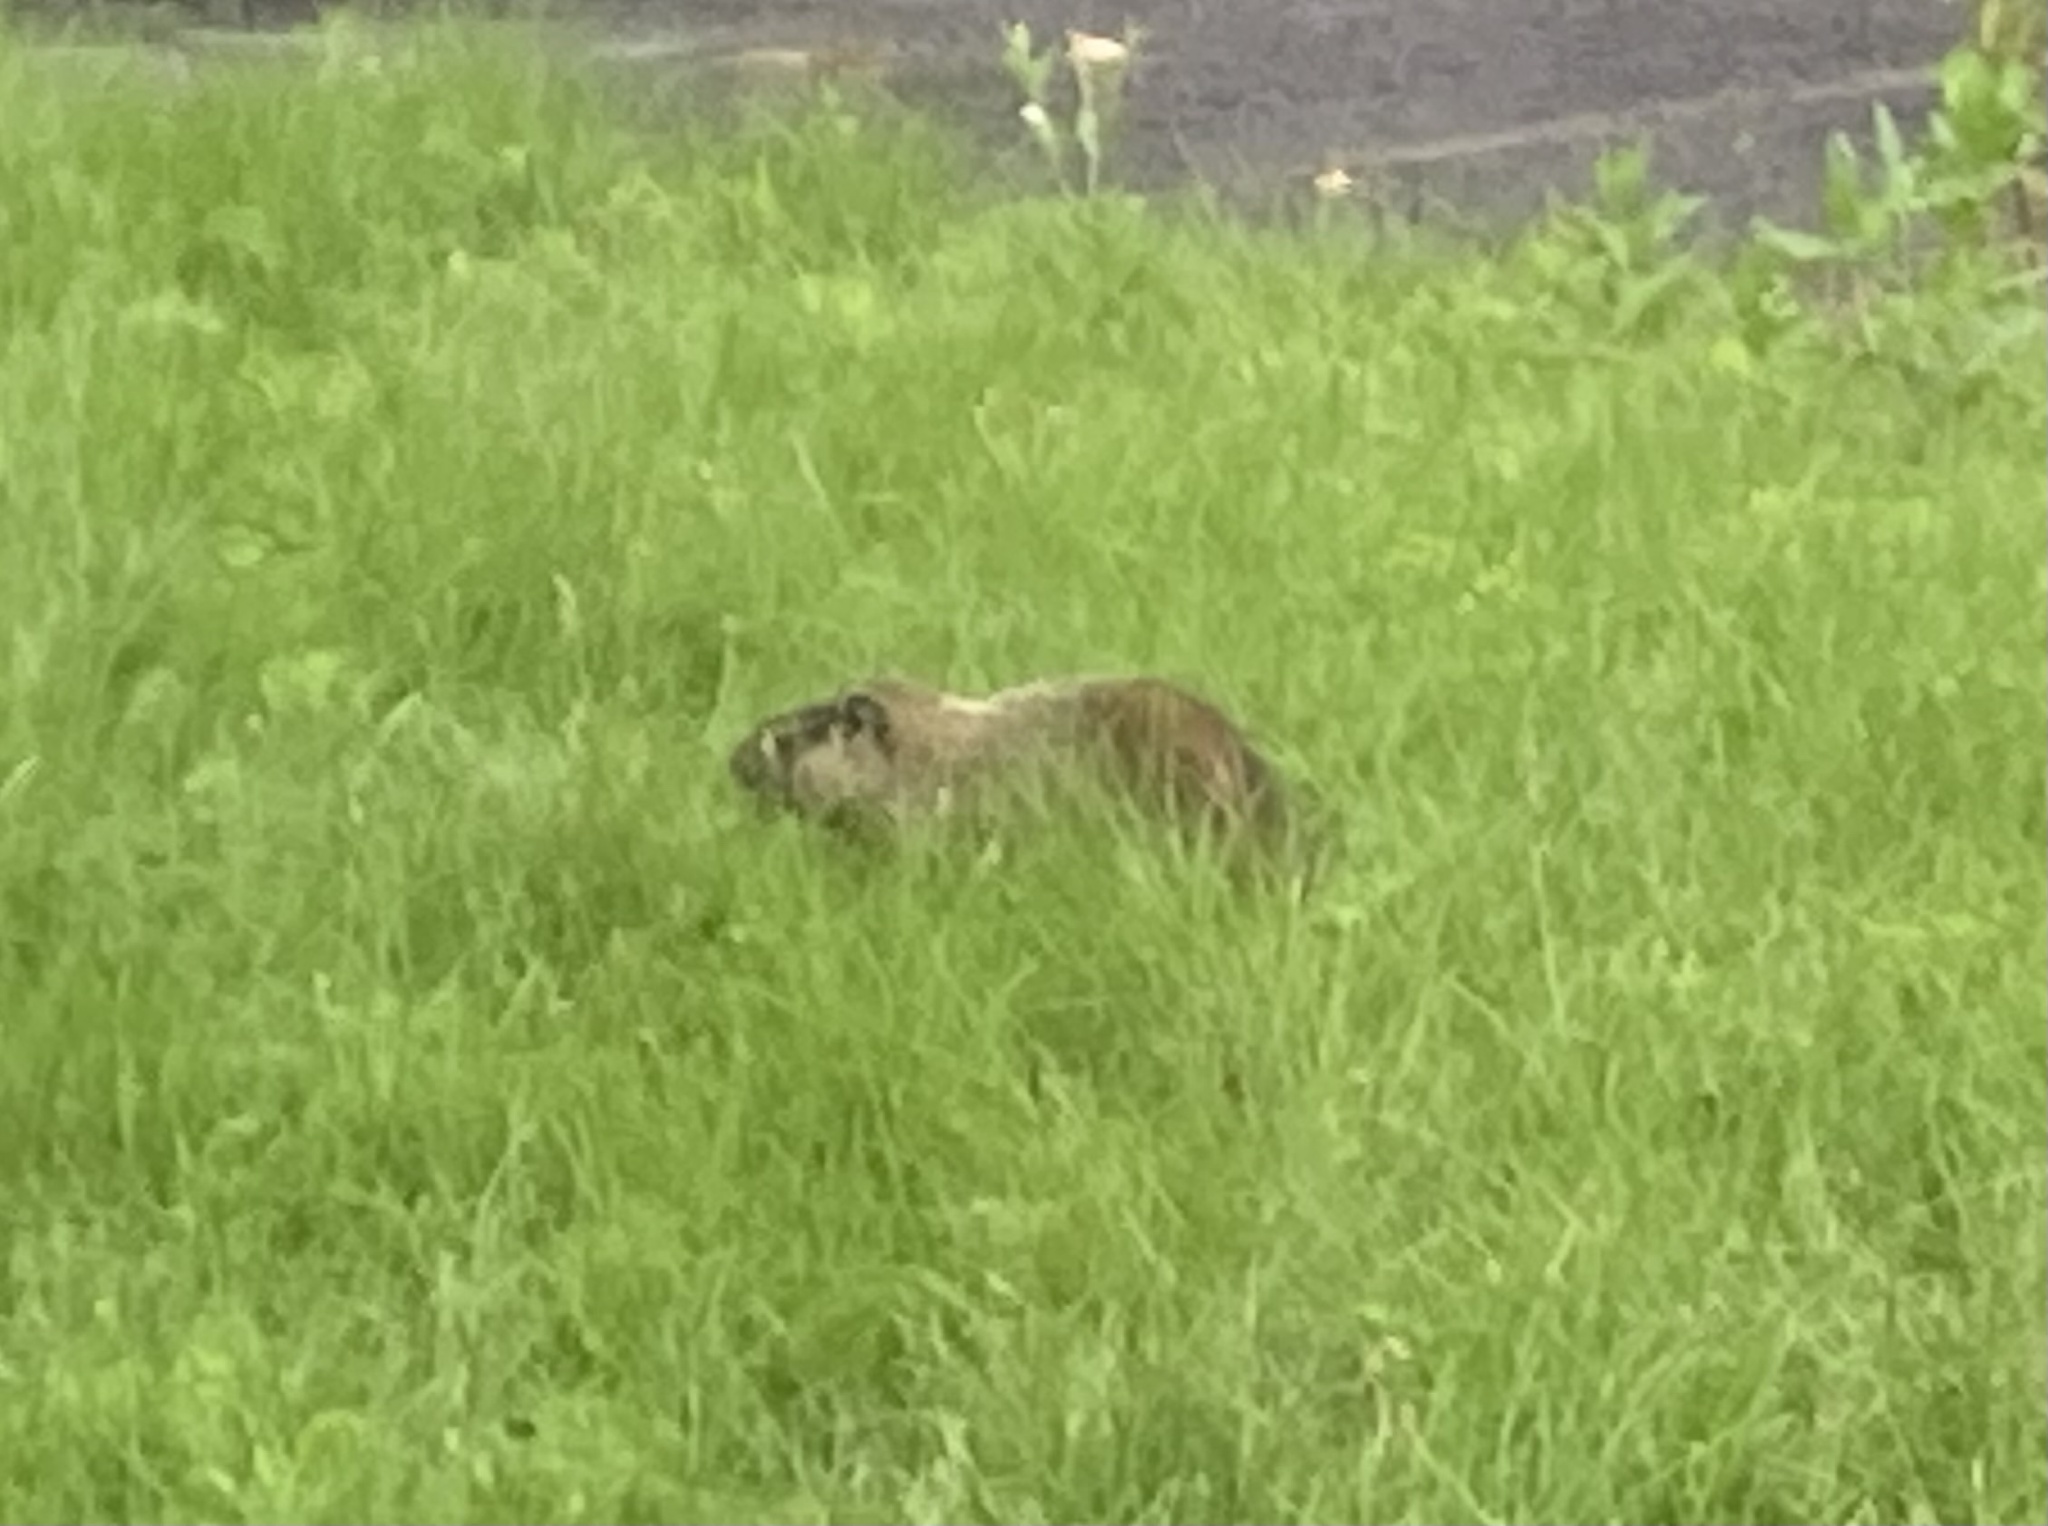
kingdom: Animalia
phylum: Chordata
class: Mammalia
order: Rodentia
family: Sciuridae
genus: Marmota
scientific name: Marmota monax
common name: Groundhog
